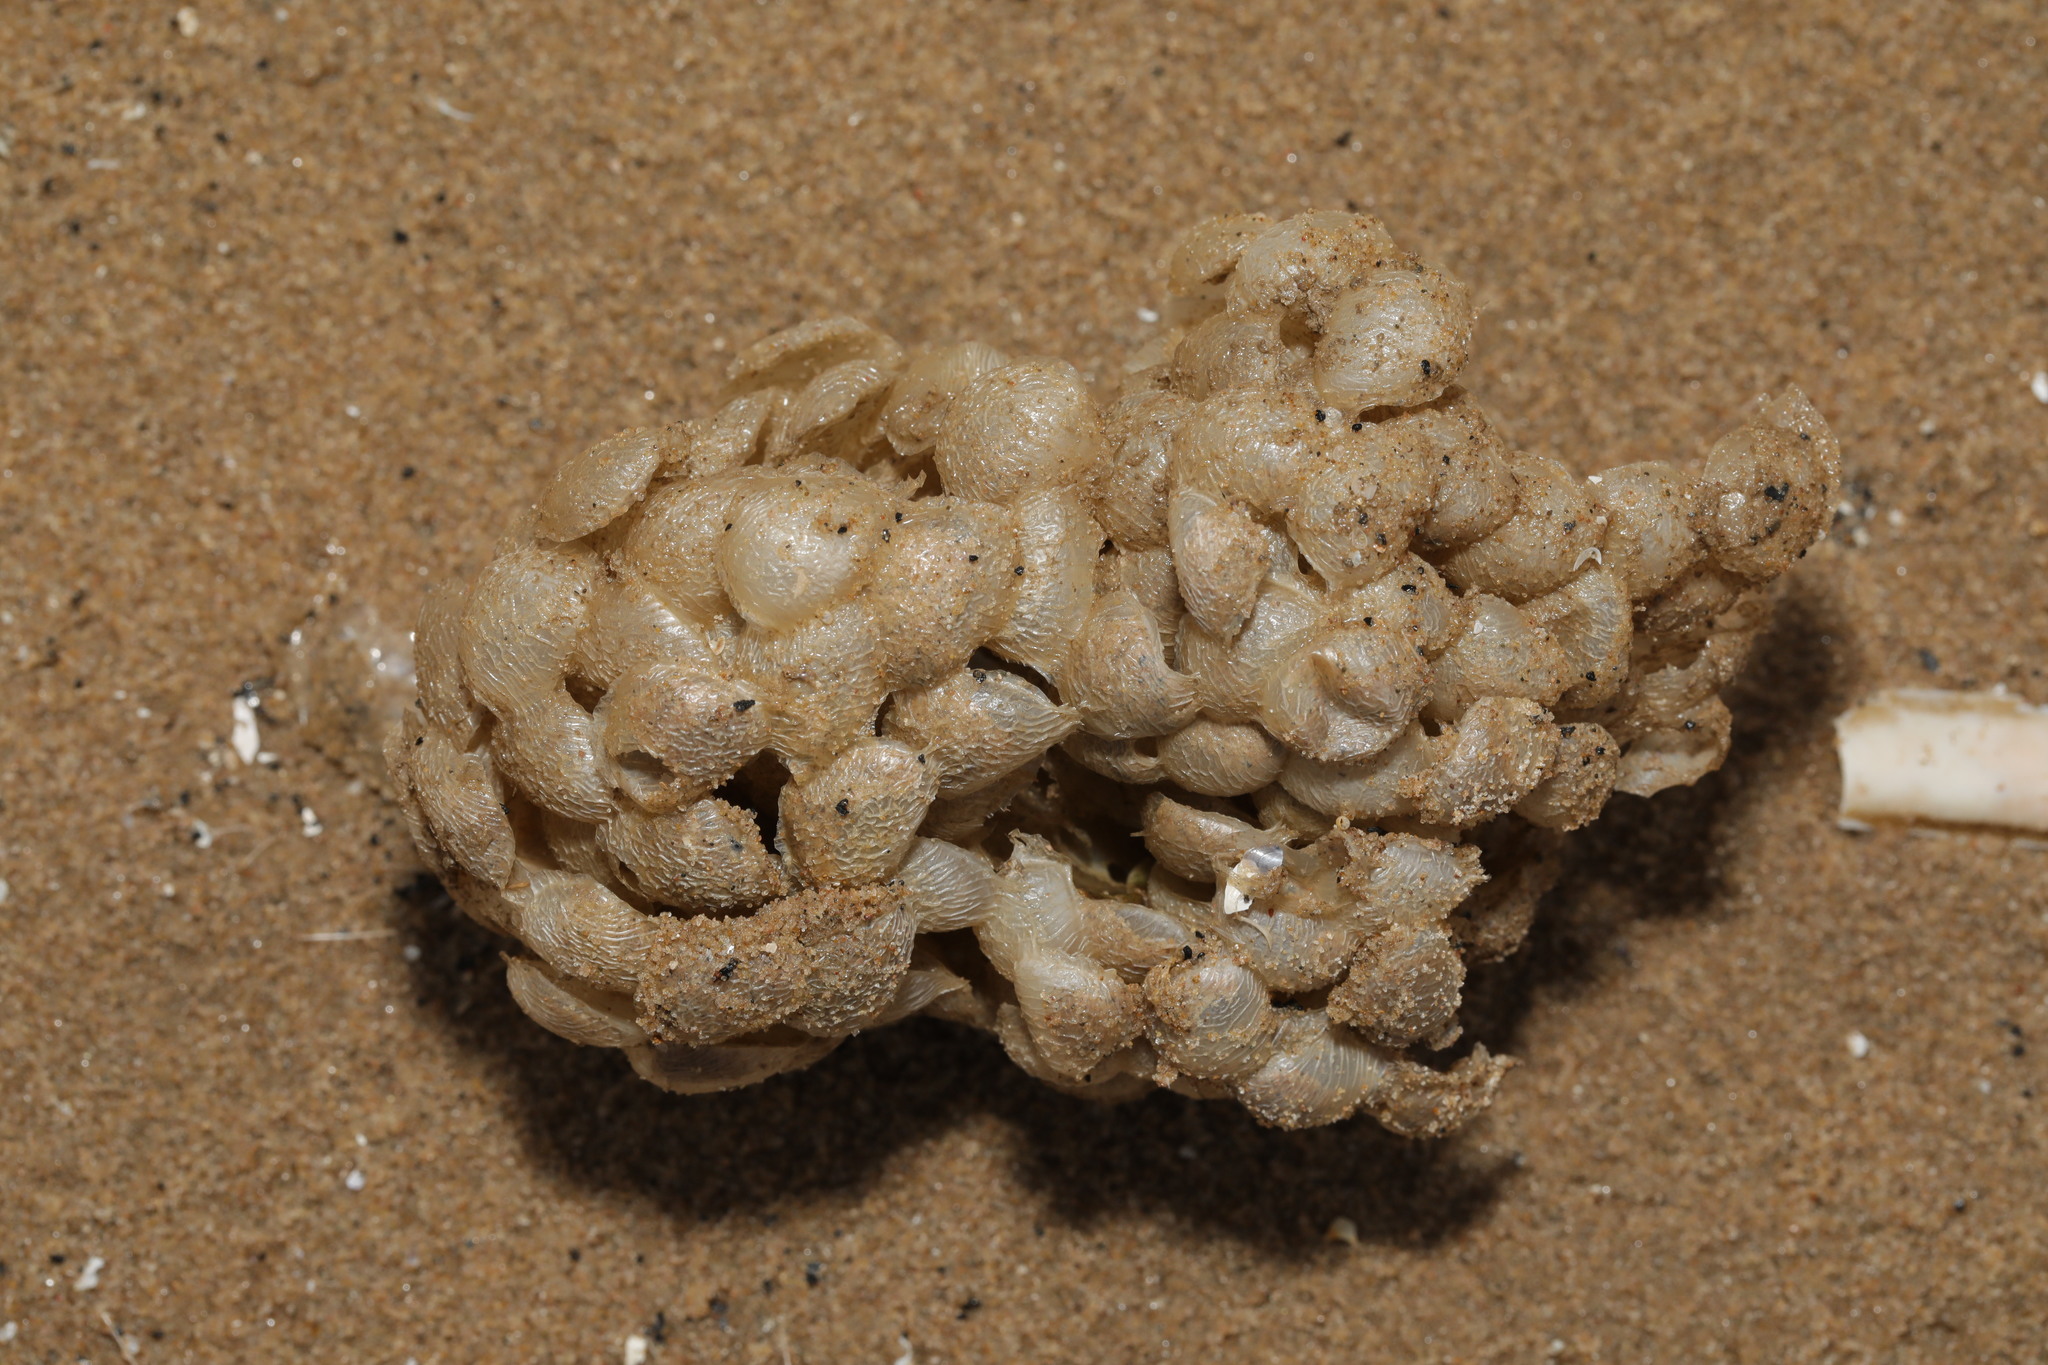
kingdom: Animalia
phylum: Mollusca
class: Gastropoda
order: Neogastropoda
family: Buccinidae
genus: Buccinum
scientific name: Buccinum undatum
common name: Common whelk
